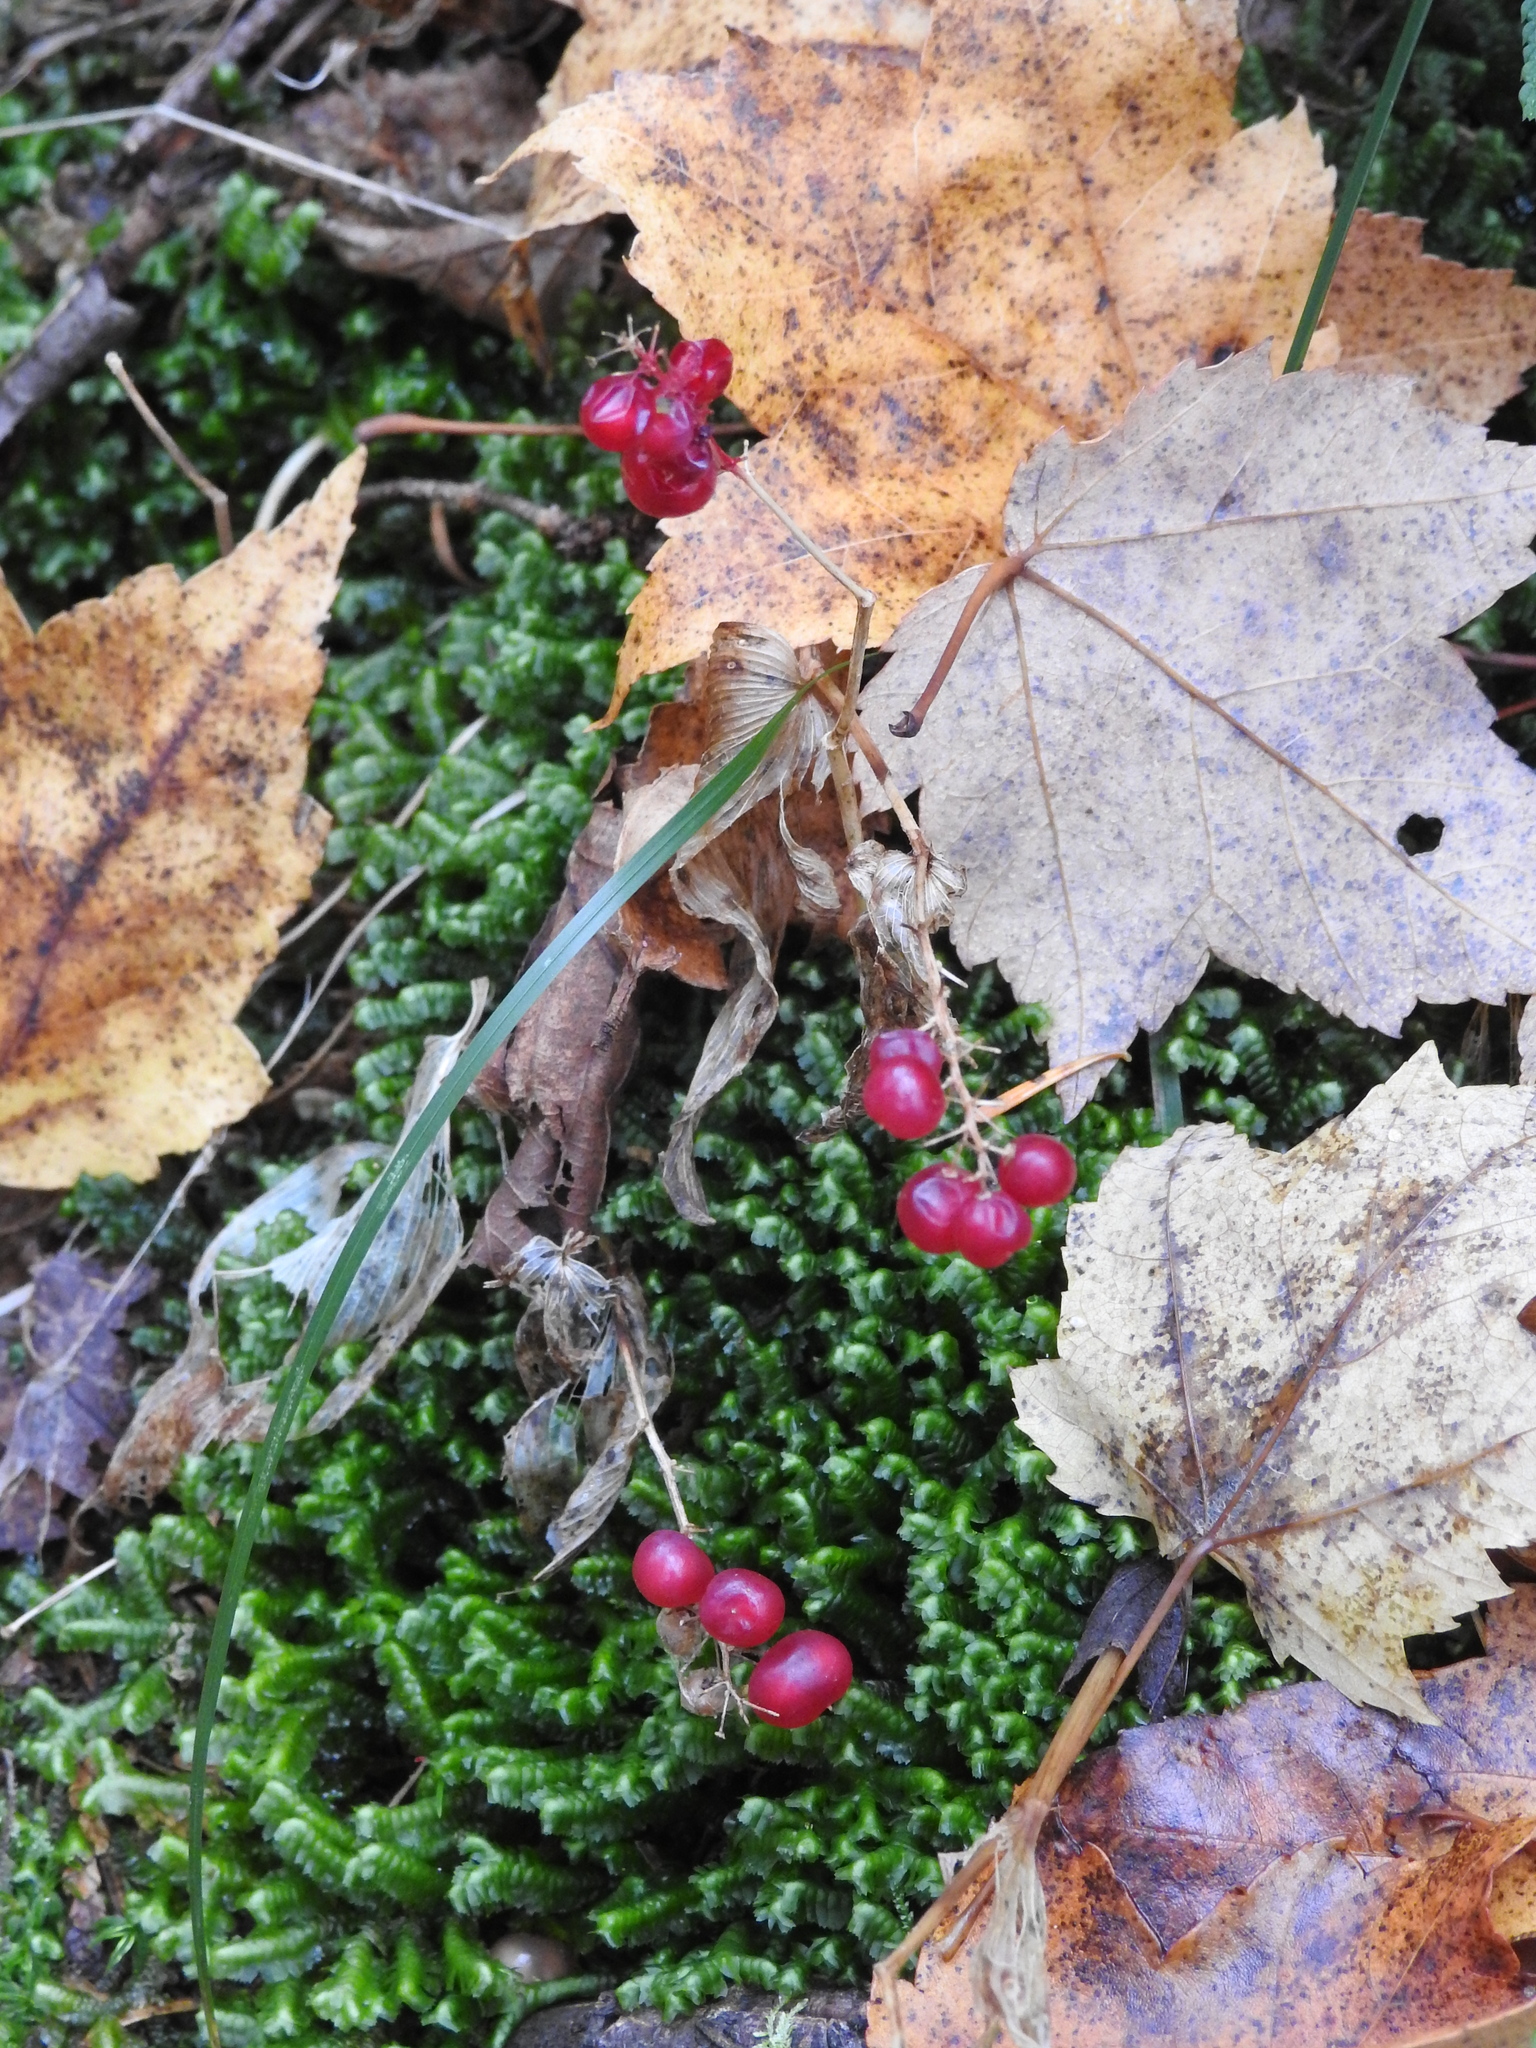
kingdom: Plantae
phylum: Marchantiophyta
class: Jungermanniopsida
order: Jungermanniales
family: Lepidoziaceae
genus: Bazzania
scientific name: Bazzania trilobata
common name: Three-lobed whipwort
